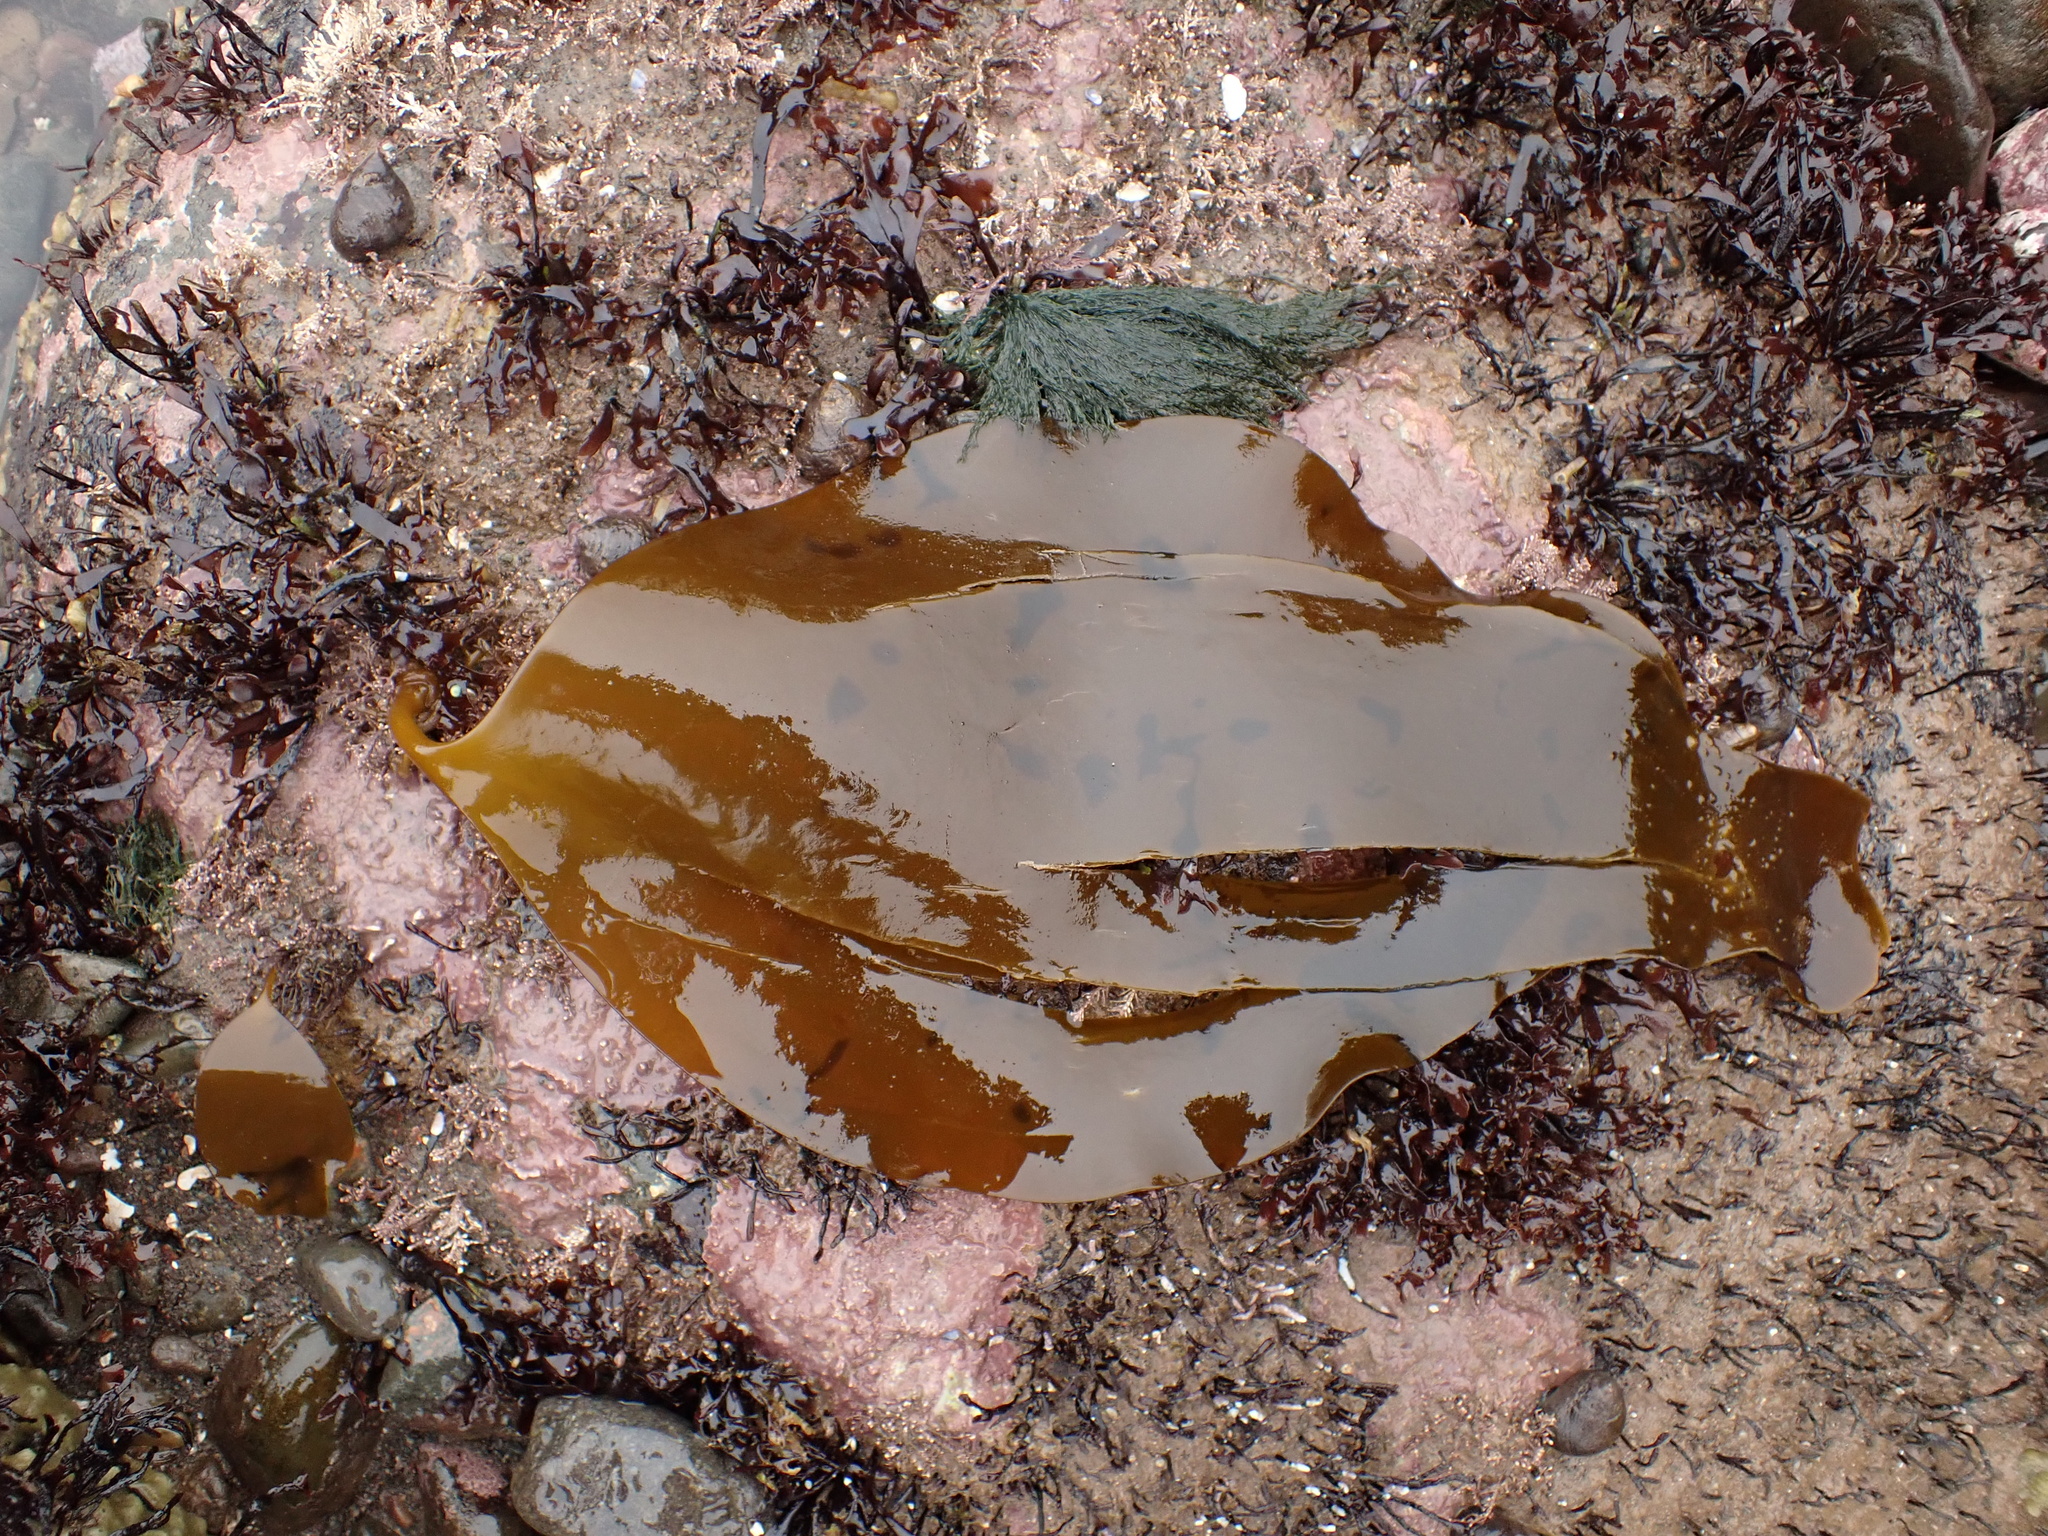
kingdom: Chromista
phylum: Ochrophyta
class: Phaeophyceae
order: Laminariales
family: Laminariaceae
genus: Laminaria
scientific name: Laminaria digitata
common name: Oarweed
